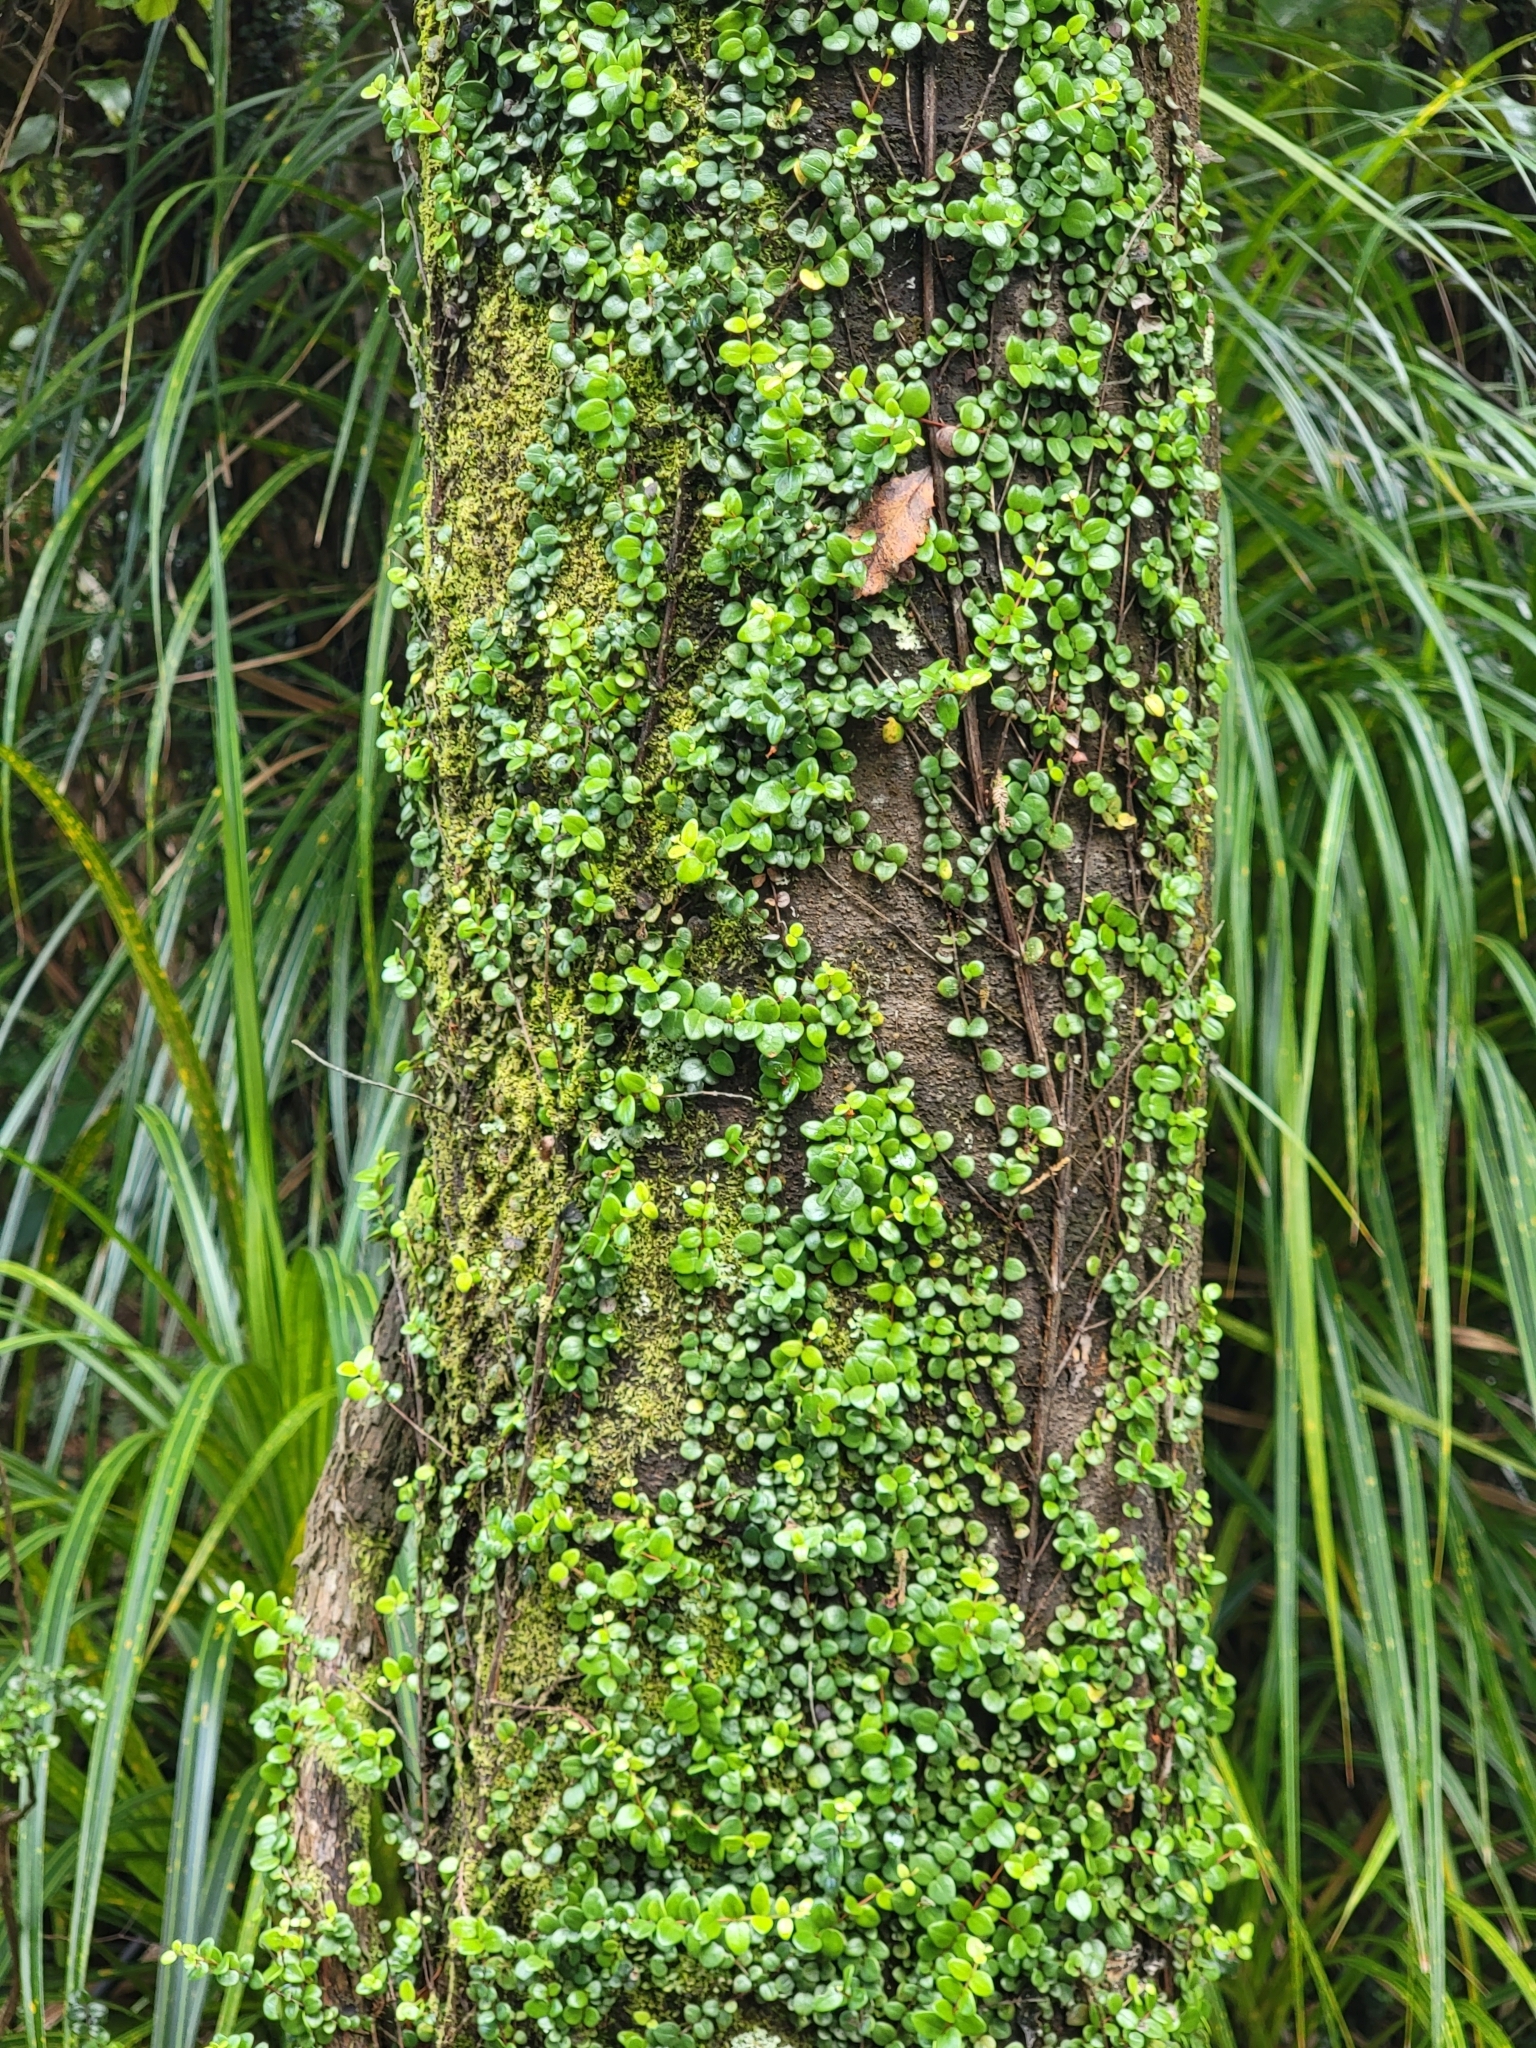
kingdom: Plantae
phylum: Tracheophyta
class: Magnoliopsida
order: Myrtales
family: Myrtaceae
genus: Metrosideros
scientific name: Metrosideros perforata
